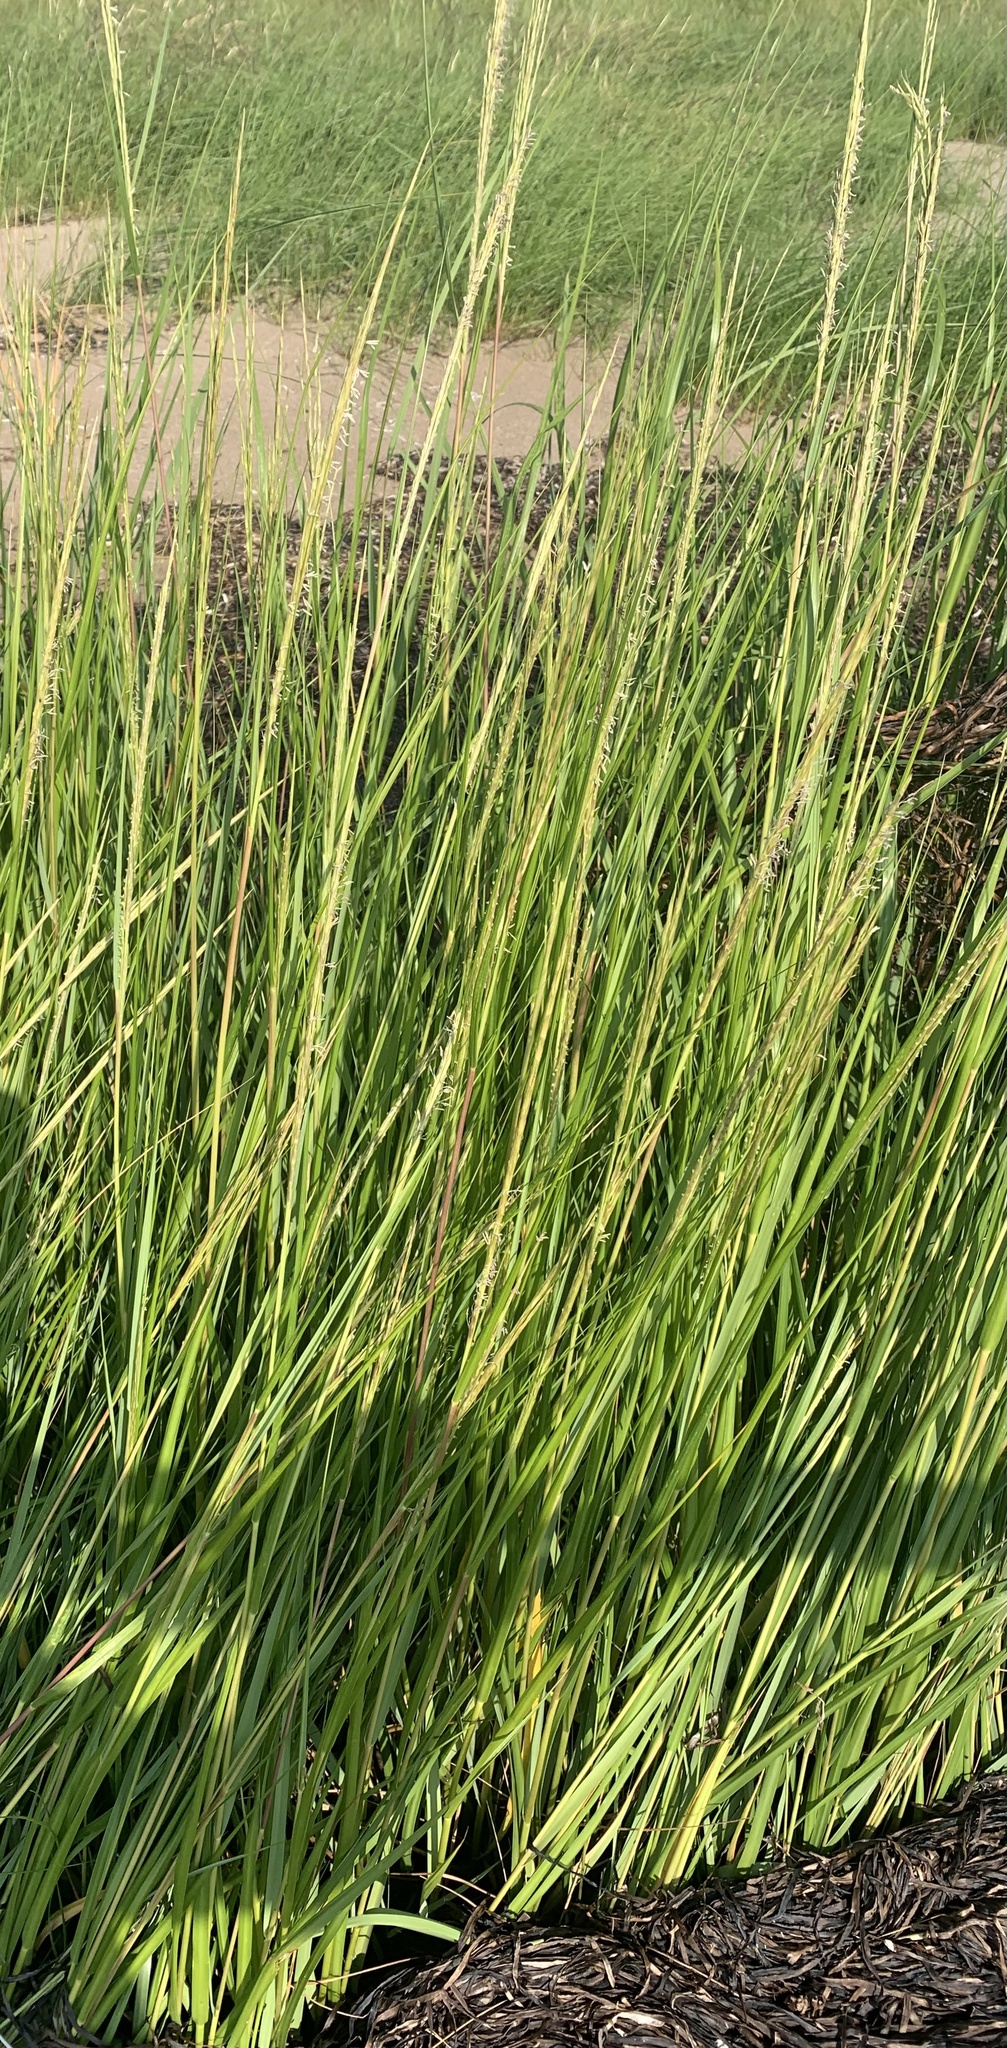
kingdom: Plantae
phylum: Tracheophyta
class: Liliopsida
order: Poales
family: Poaceae
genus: Sporobolus
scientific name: Sporobolus alterniflorus
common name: Atlantic cordgrass
